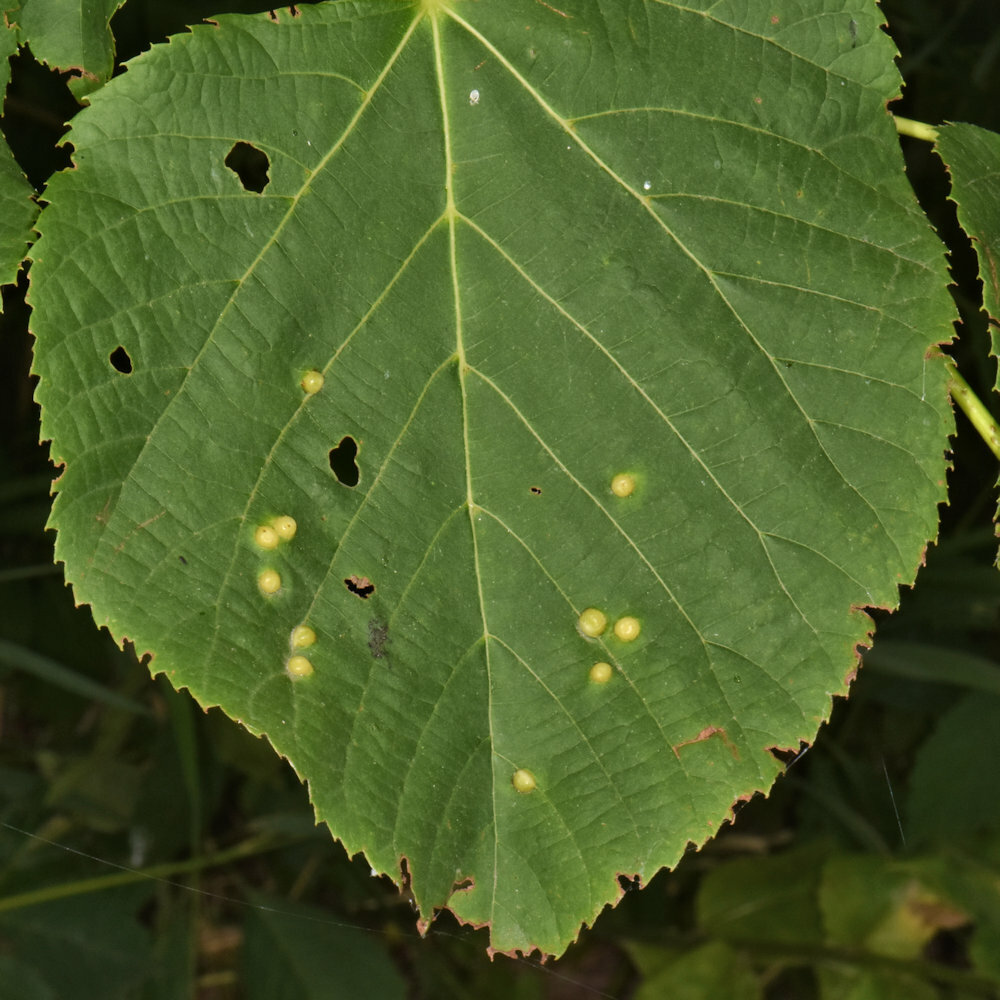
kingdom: Animalia
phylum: Arthropoda
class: Insecta
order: Diptera
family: Cecidomyiidae
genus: Contarinia
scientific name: Contarinia verrucicola
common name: Linden wart gall midge
